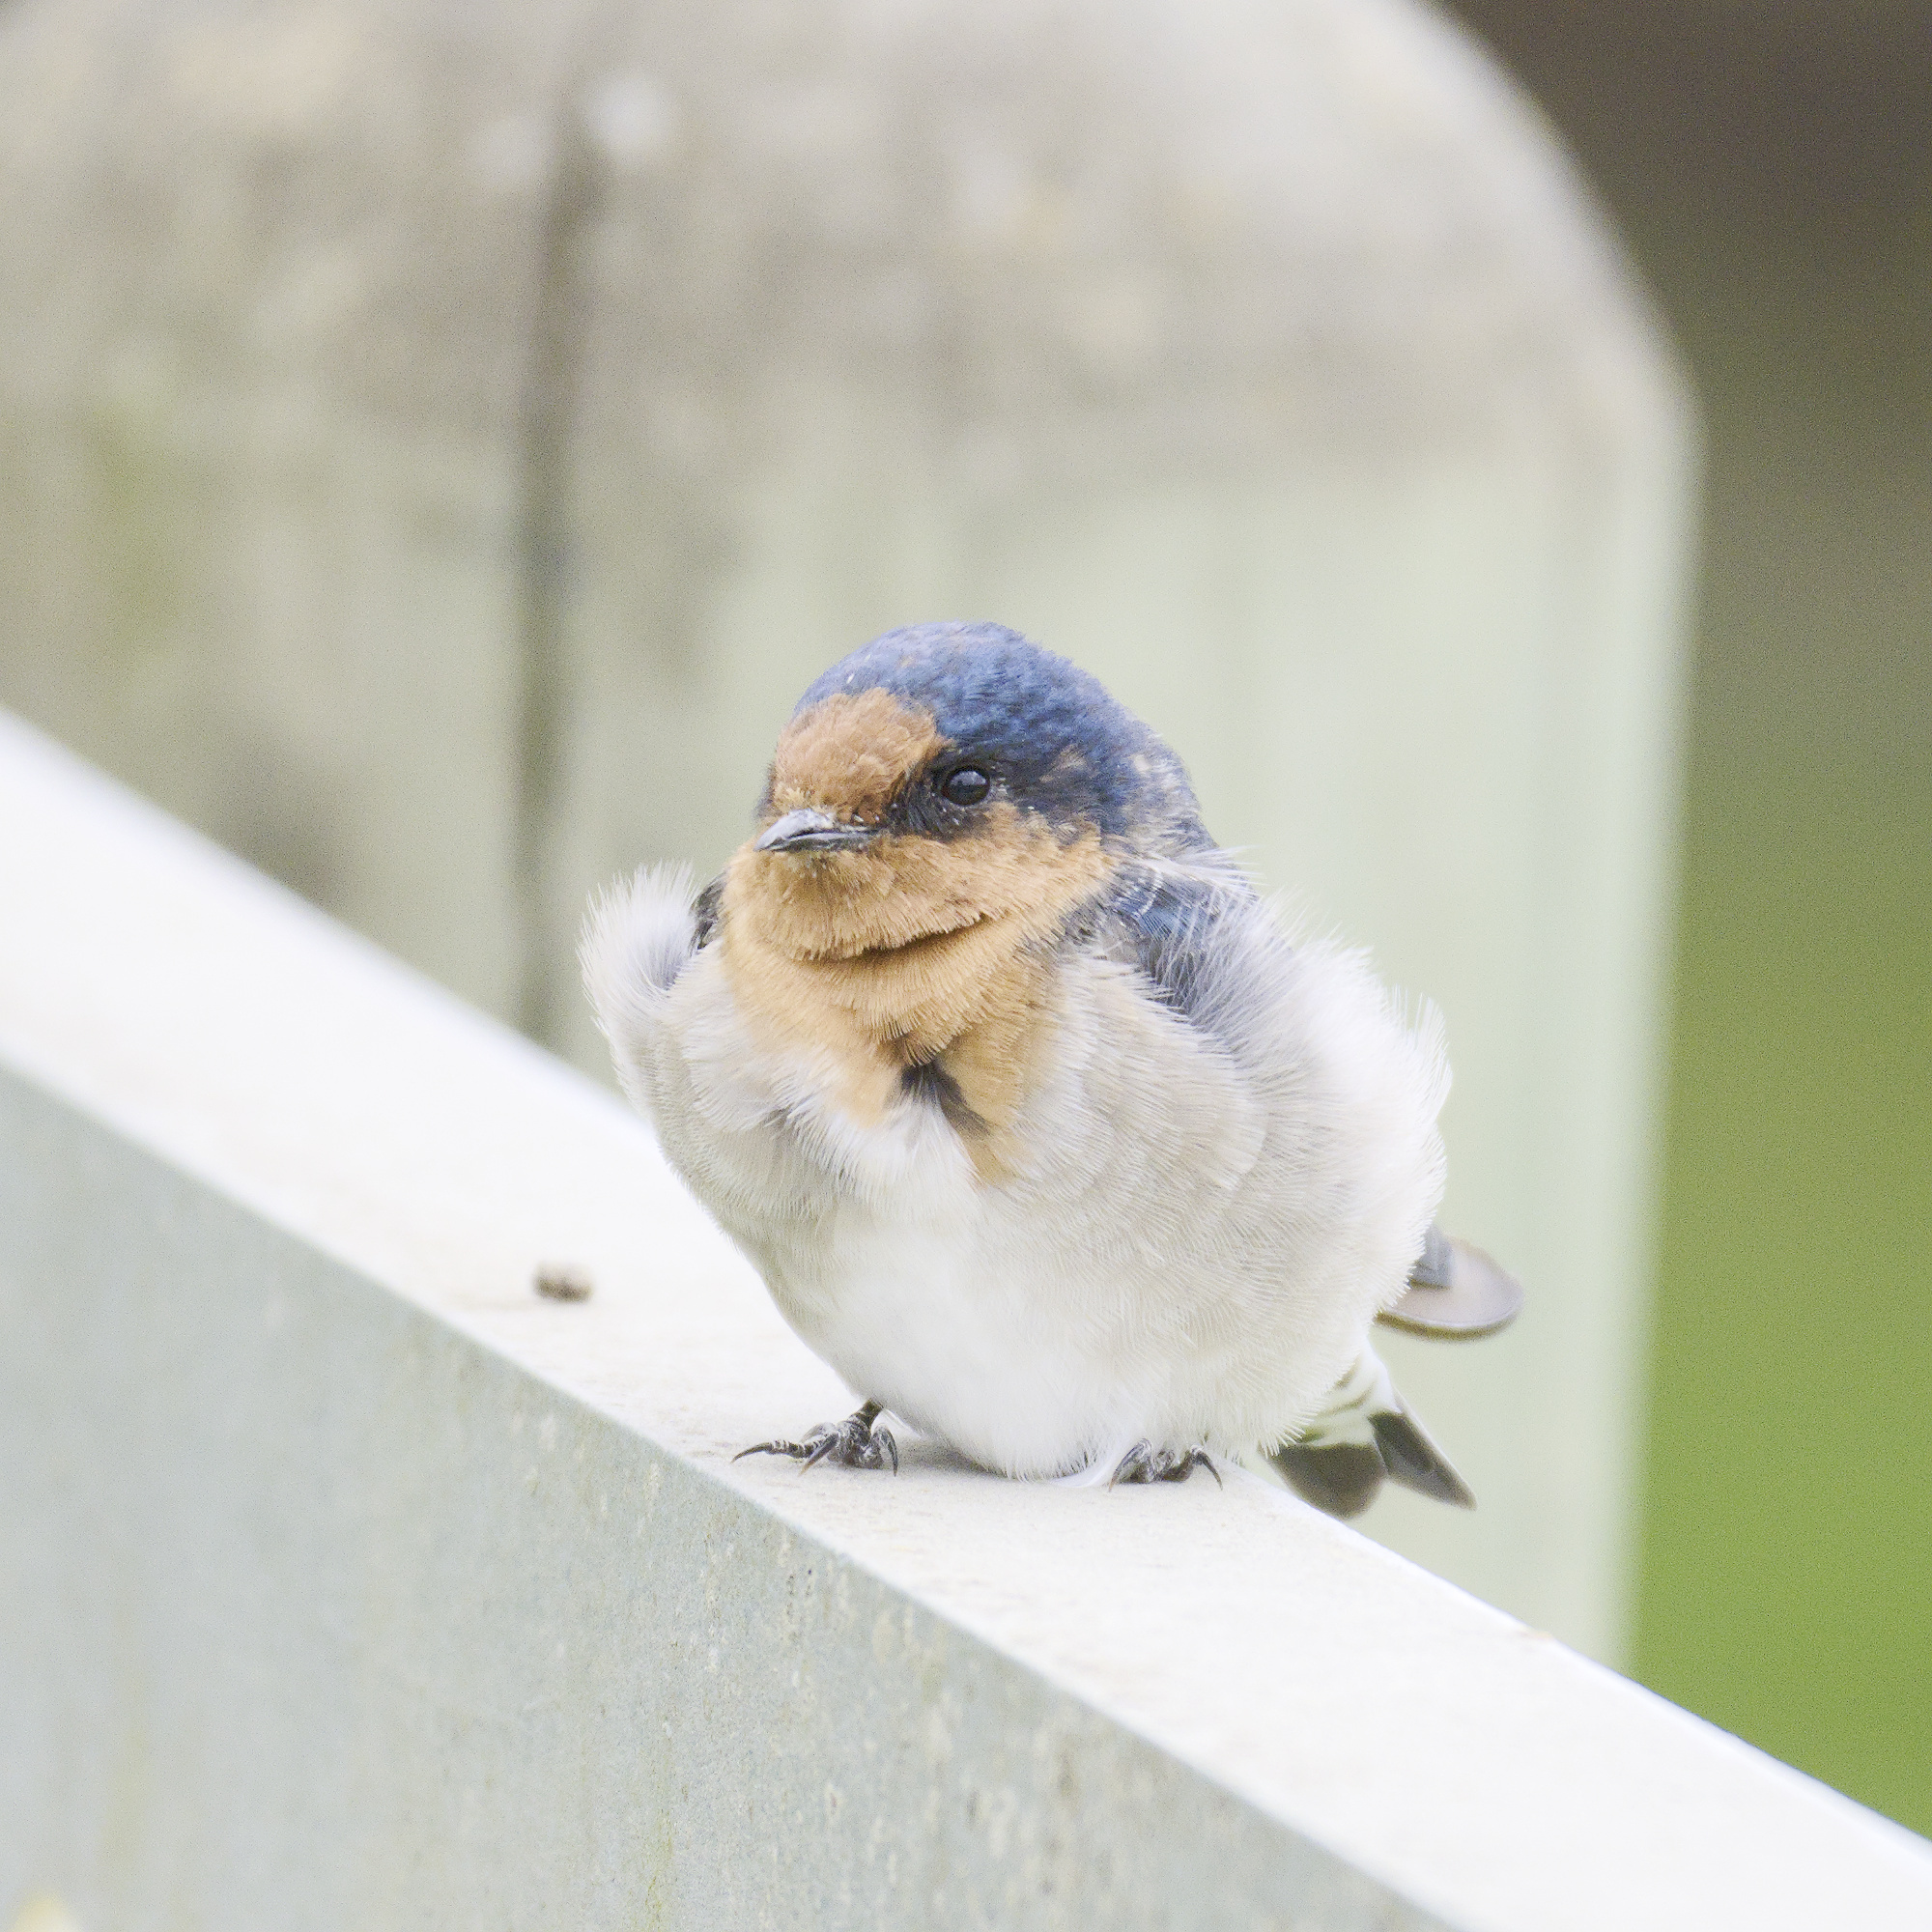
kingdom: Animalia
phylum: Chordata
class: Aves
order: Passeriformes
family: Hirundinidae
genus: Hirundo
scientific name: Hirundo neoxena
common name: Welcome swallow
